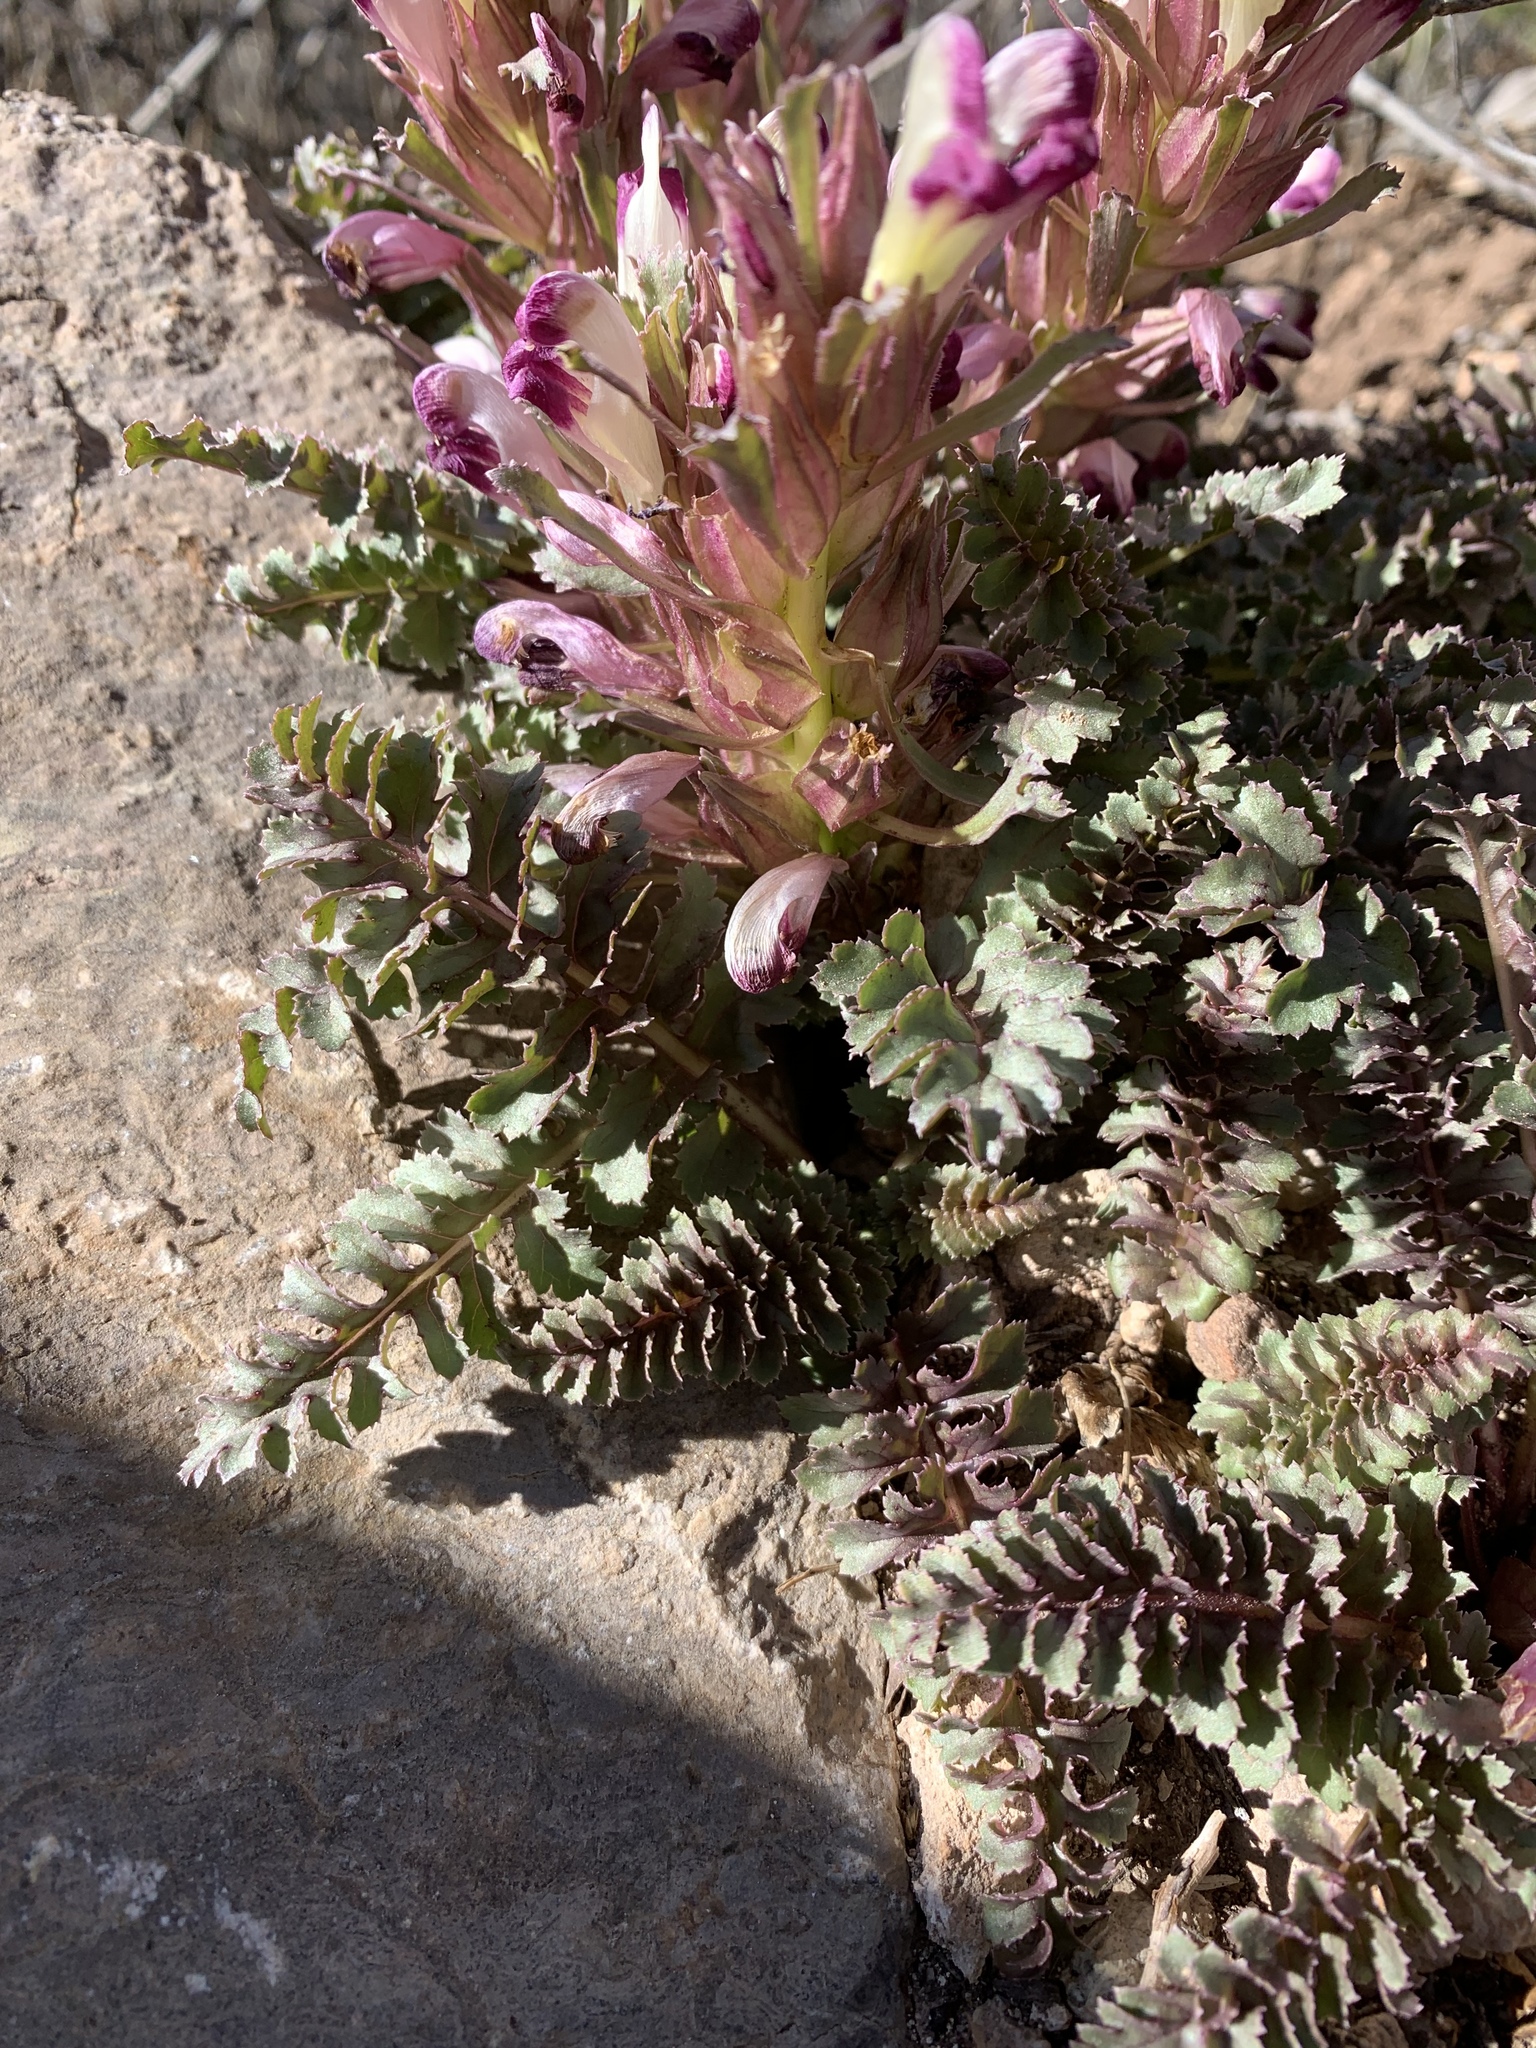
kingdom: Plantae
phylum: Tracheophyta
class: Magnoliopsida
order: Lamiales
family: Orobanchaceae
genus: Pedicularis
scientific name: Pedicularis centranthera
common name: Dwarf lousewort
